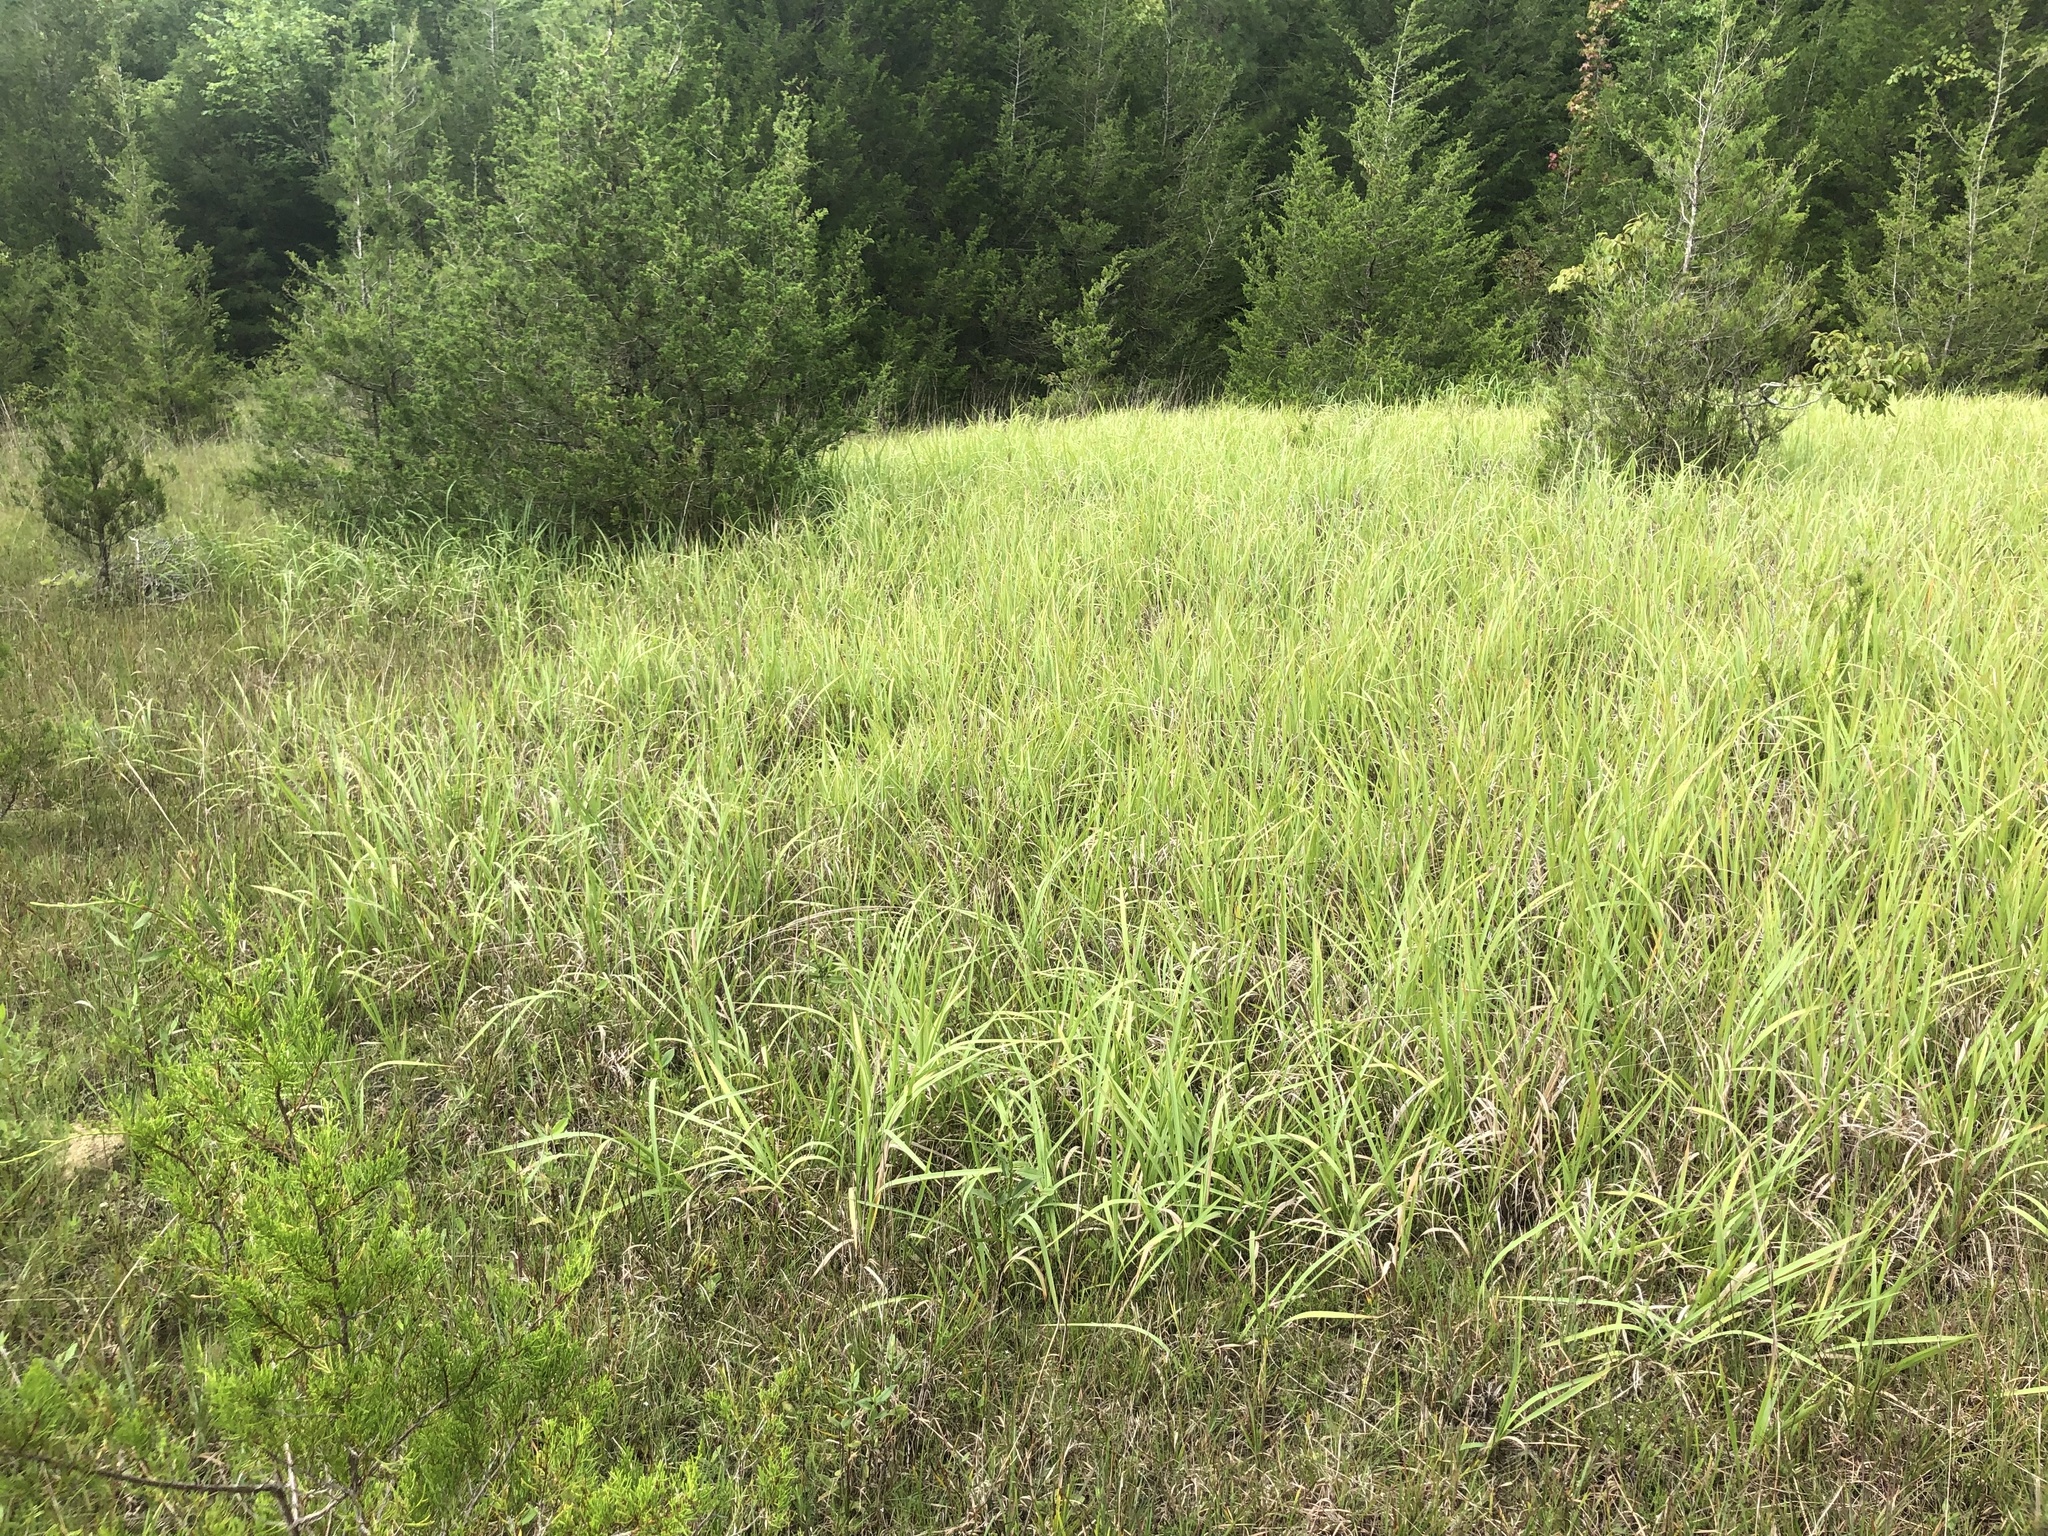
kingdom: Plantae
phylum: Tracheophyta
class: Liliopsida
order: Poales
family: Poaceae
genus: Imperata
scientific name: Imperata cylindrica
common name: Cogongrass
